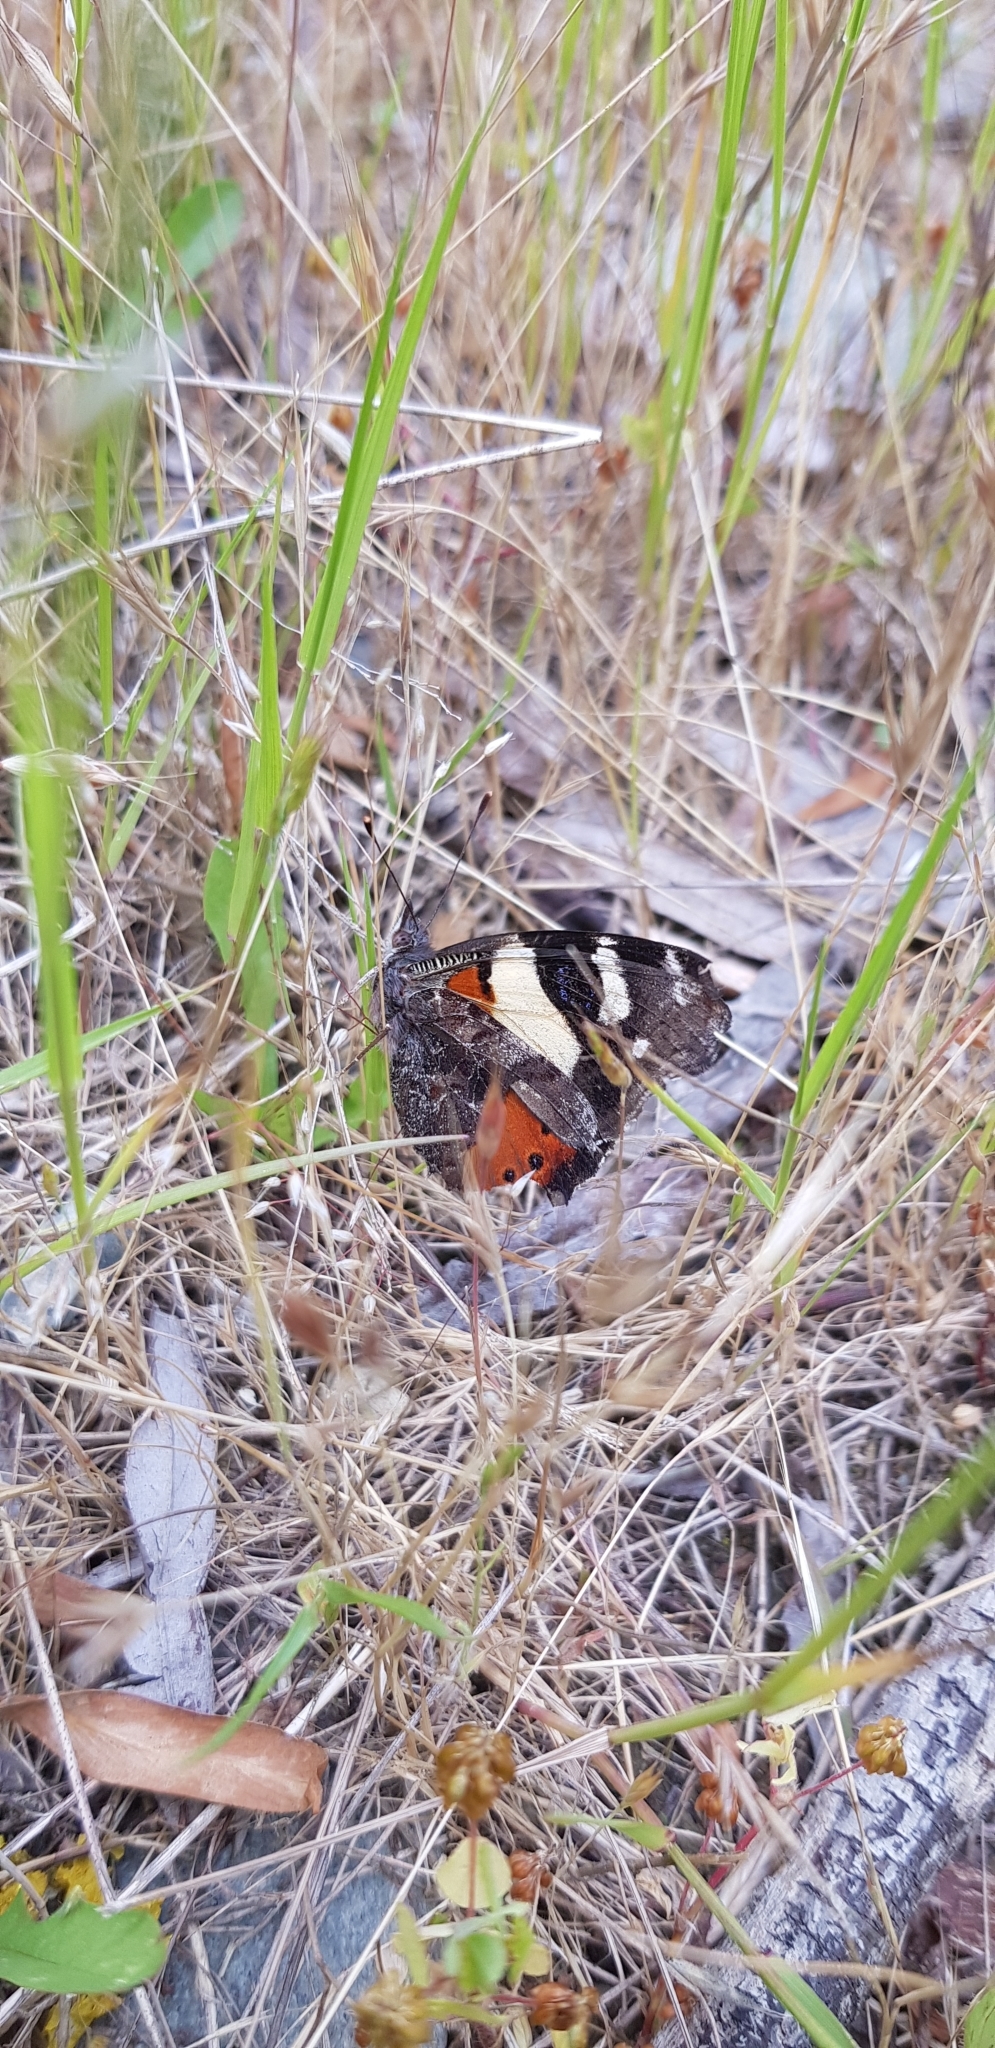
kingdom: Animalia
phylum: Arthropoda
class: Insecta
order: Lepidoptera
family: Nymphalidae
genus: Vanessa
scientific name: Vanessa itea
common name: Yellow admiral
